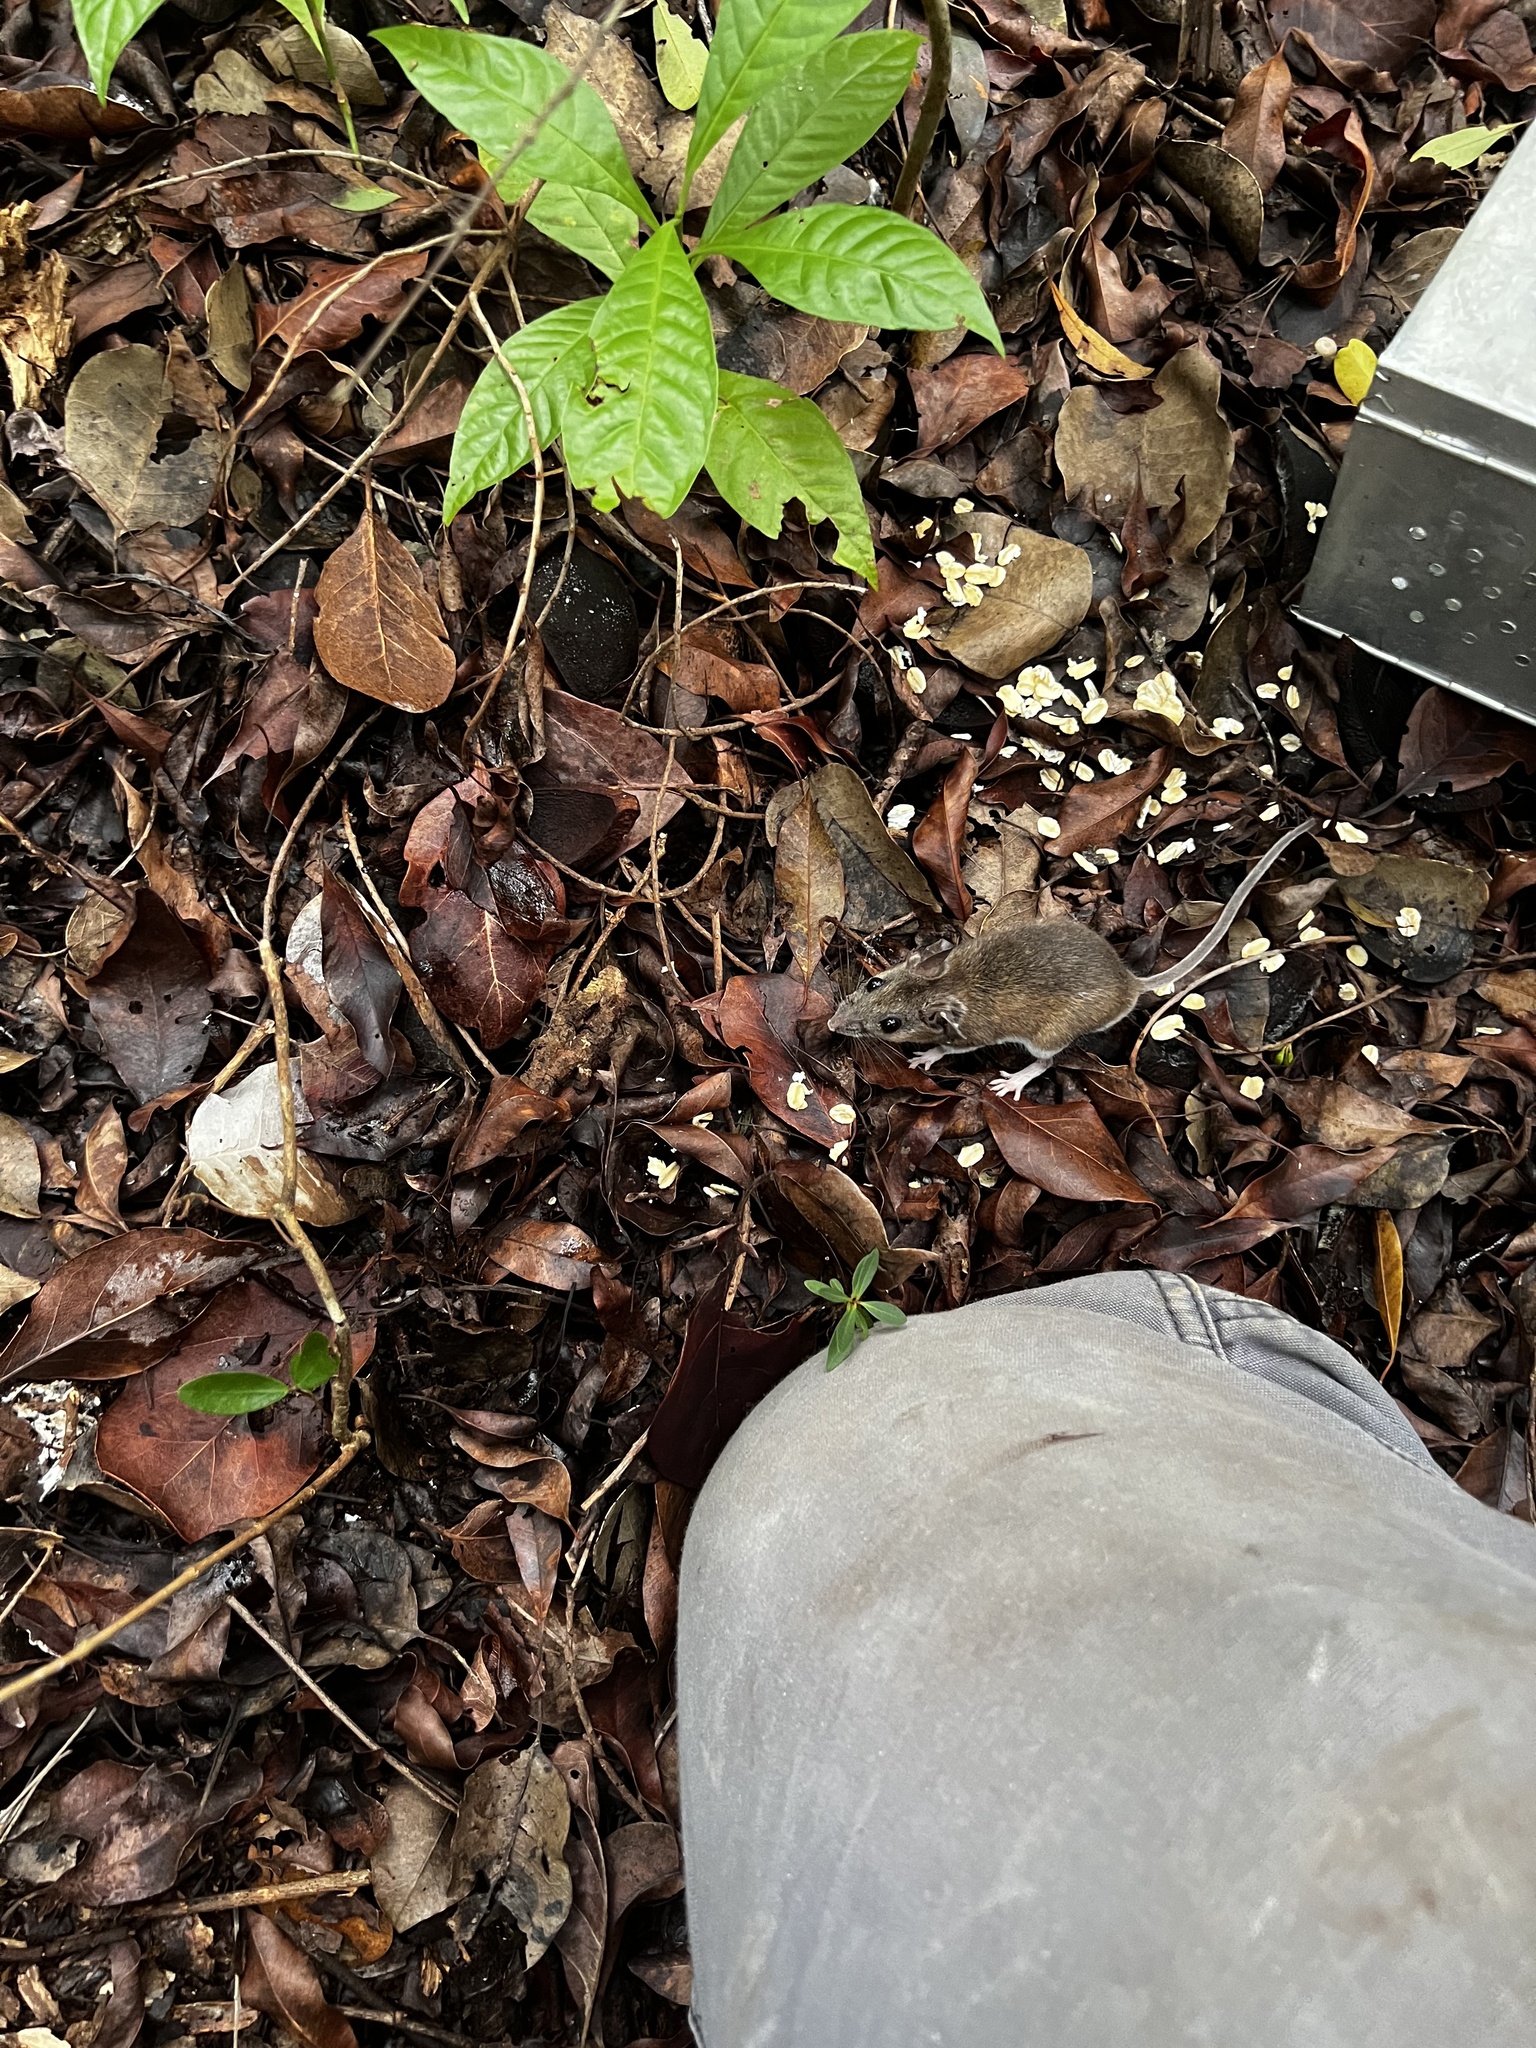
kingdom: Animalia
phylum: Chordata
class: Mammalia
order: Rodentia
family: Cricetidae
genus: Peromyscus
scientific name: Peromyscus gossypinus
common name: Cotton deermouse
